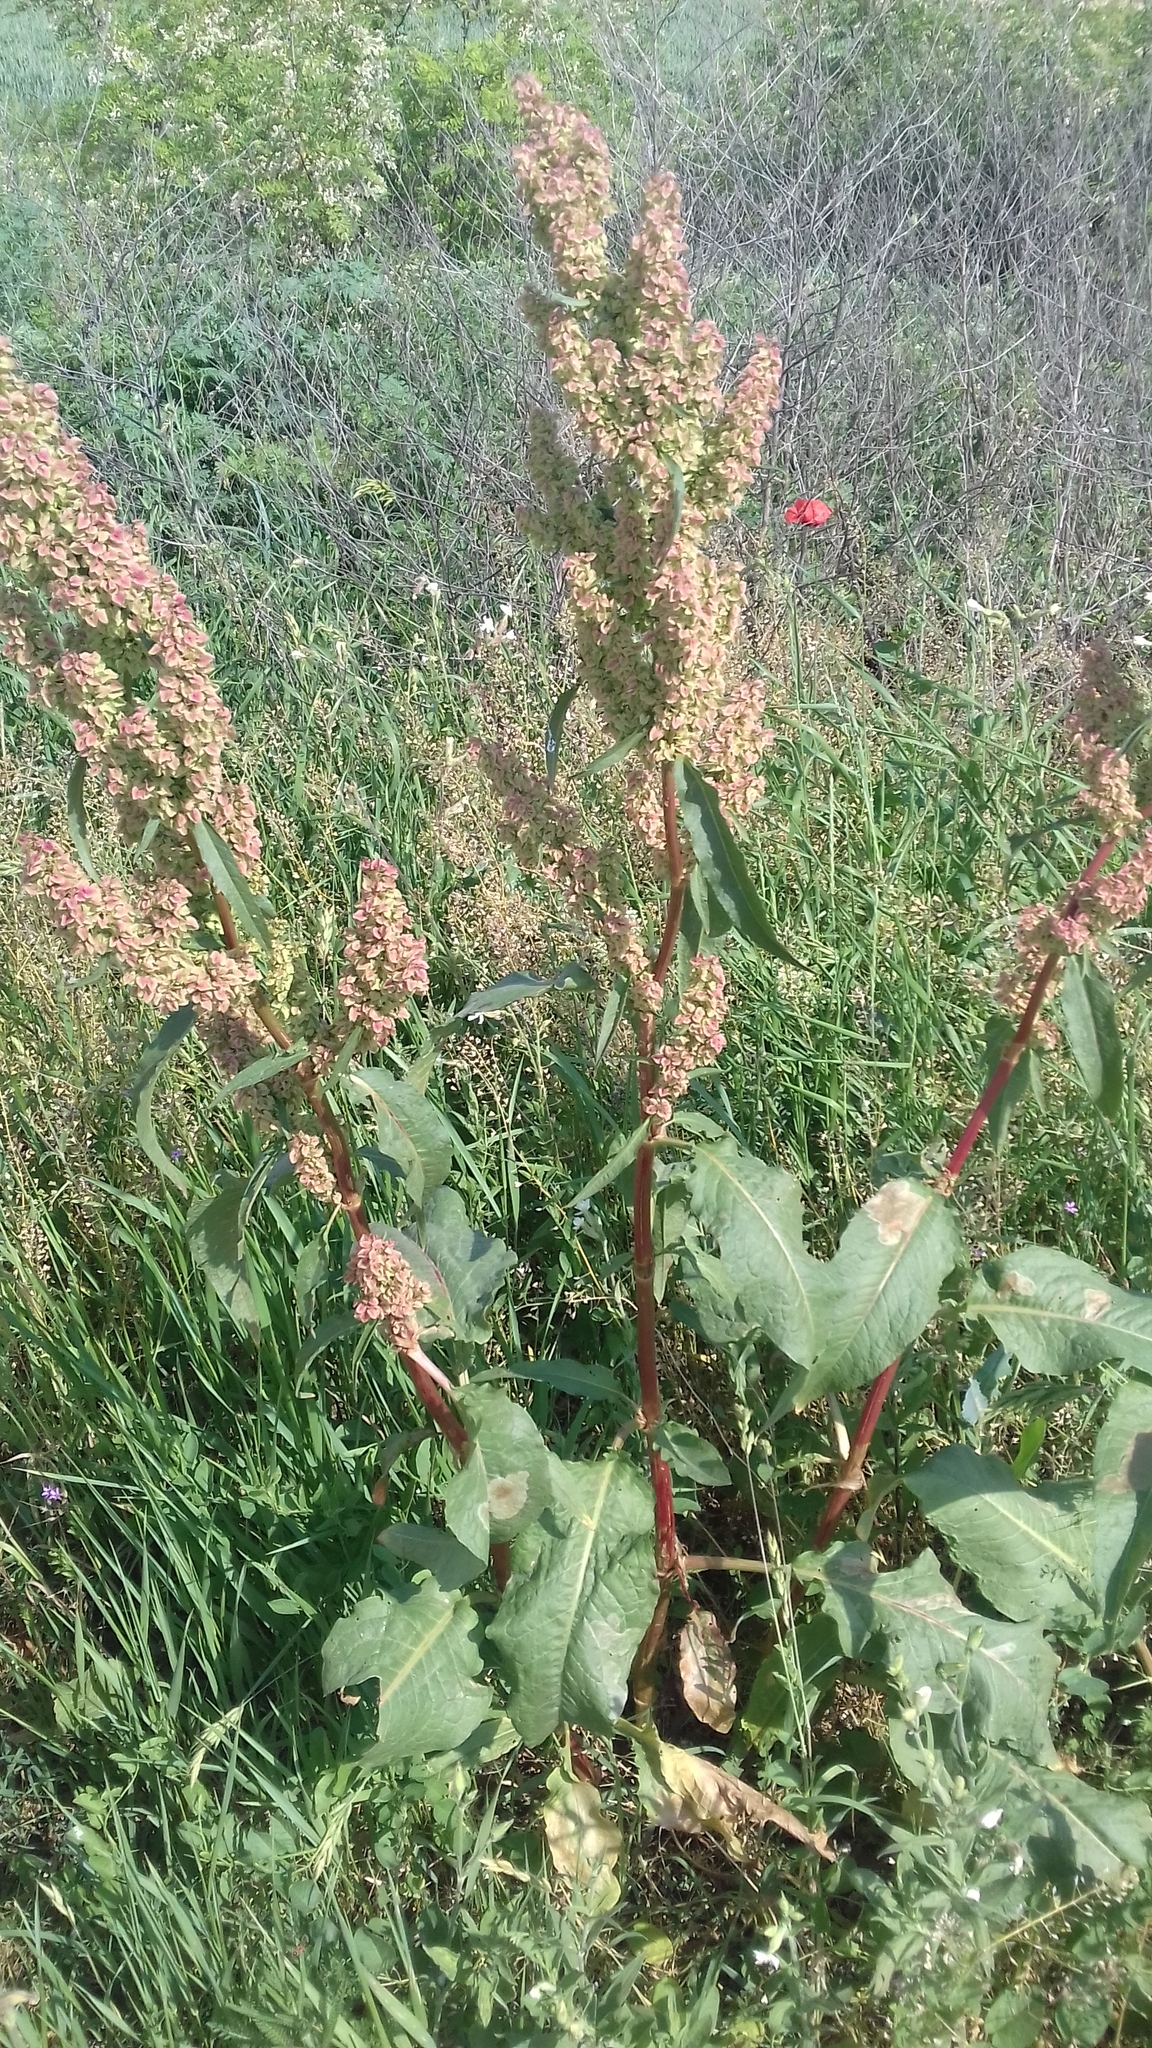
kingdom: Plantae
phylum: Tracheophyta
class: Magnoliopsida
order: Caryophyllales
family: Polygonaceae
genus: Rumex
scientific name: Rumex patientia
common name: Patience dock
